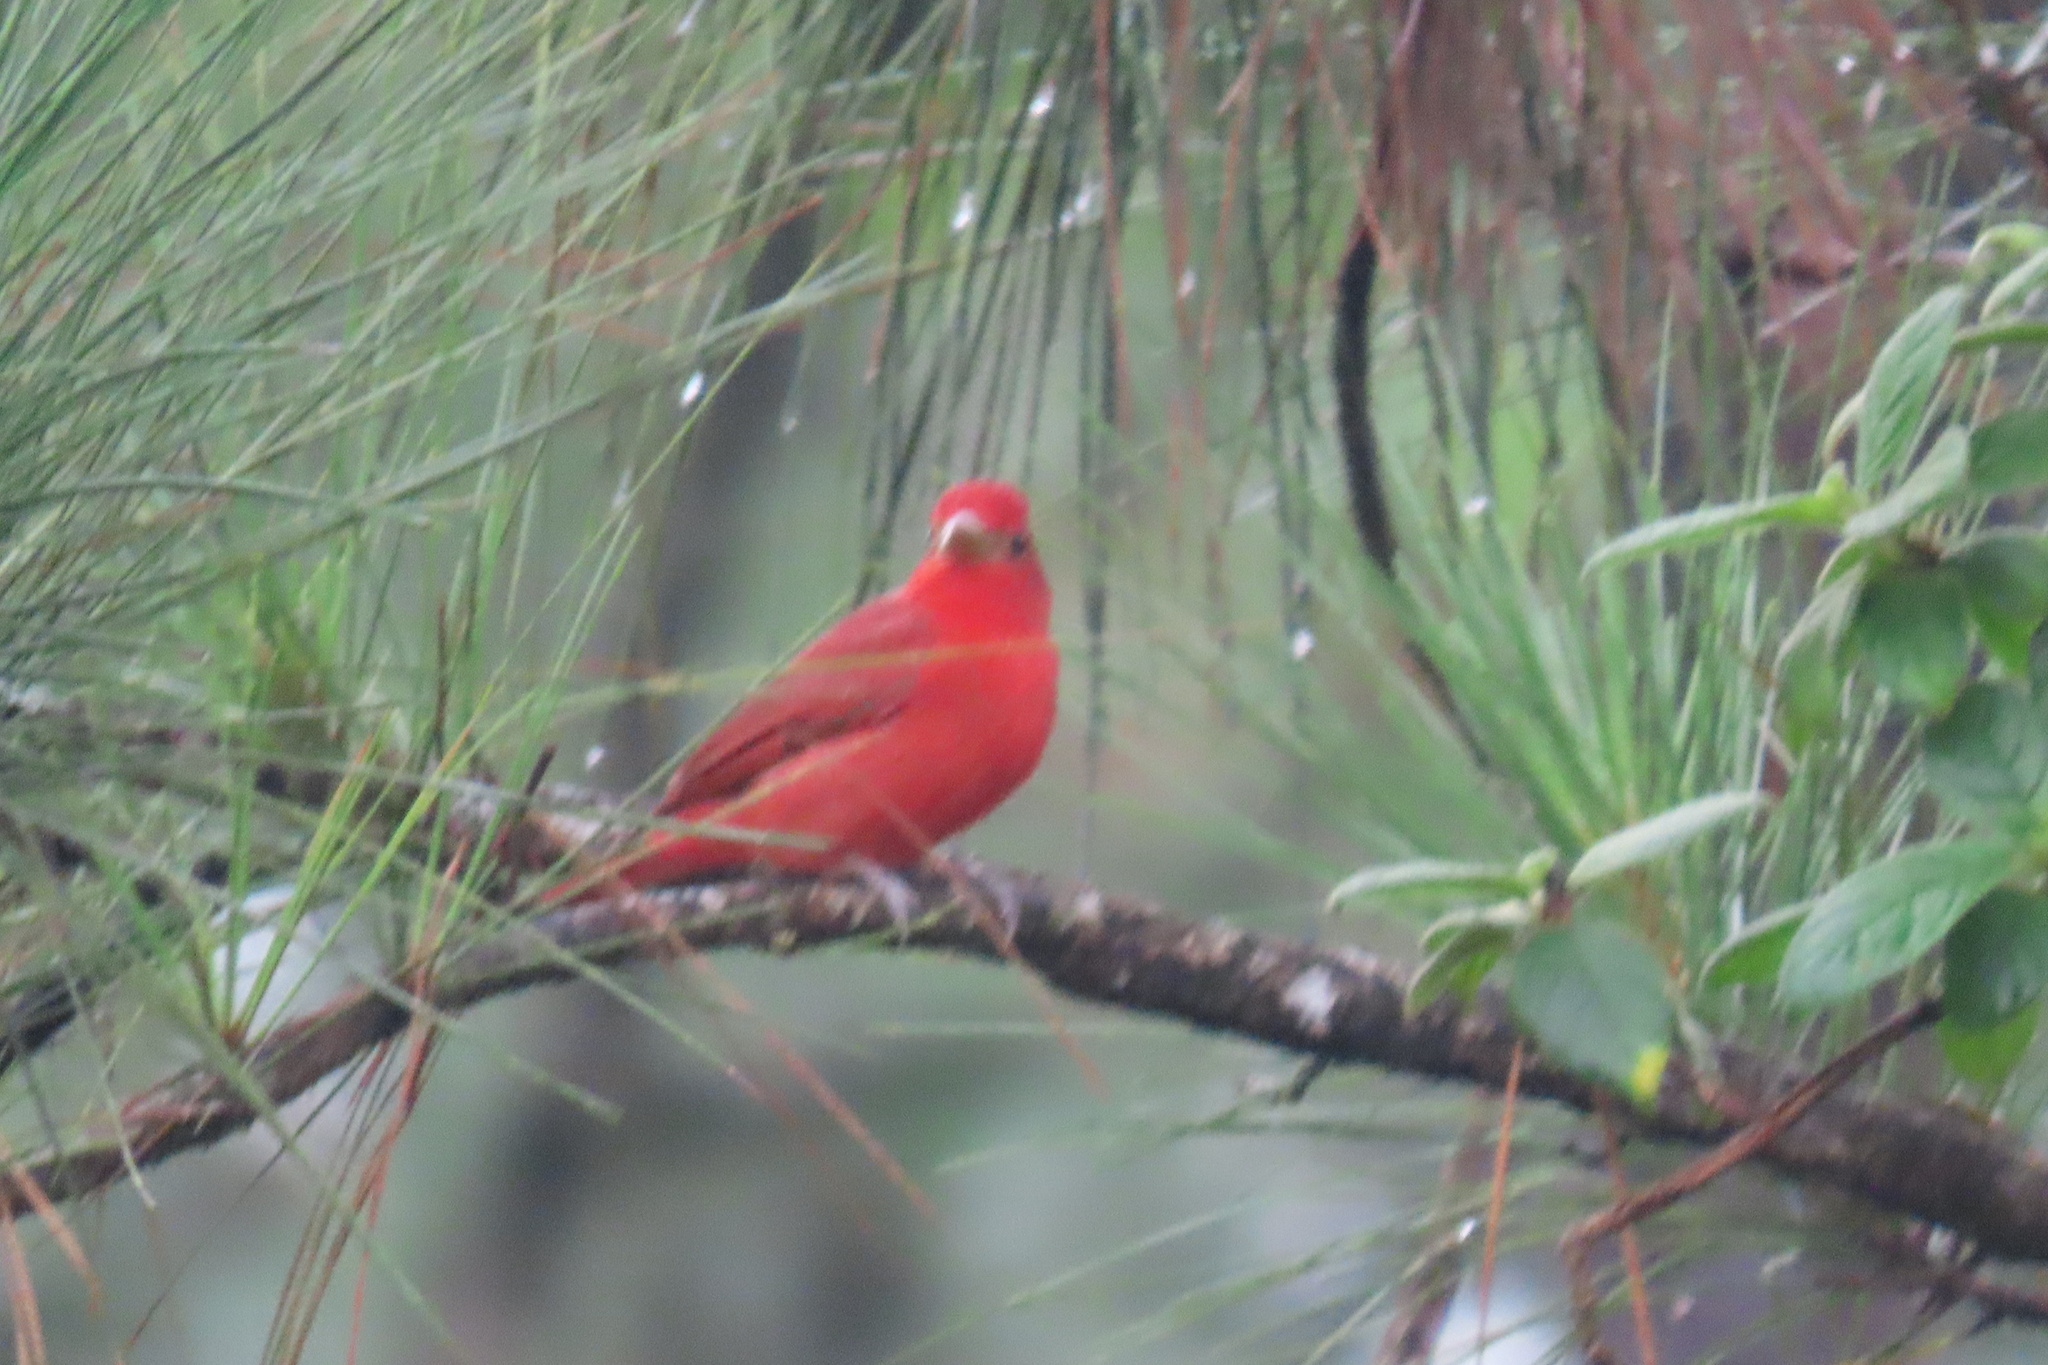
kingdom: Animalia
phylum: Chordata
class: Aves
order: Passeriformes
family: Cardinalidae
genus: Piranga
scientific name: Piranga rubra
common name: Summer tanager
